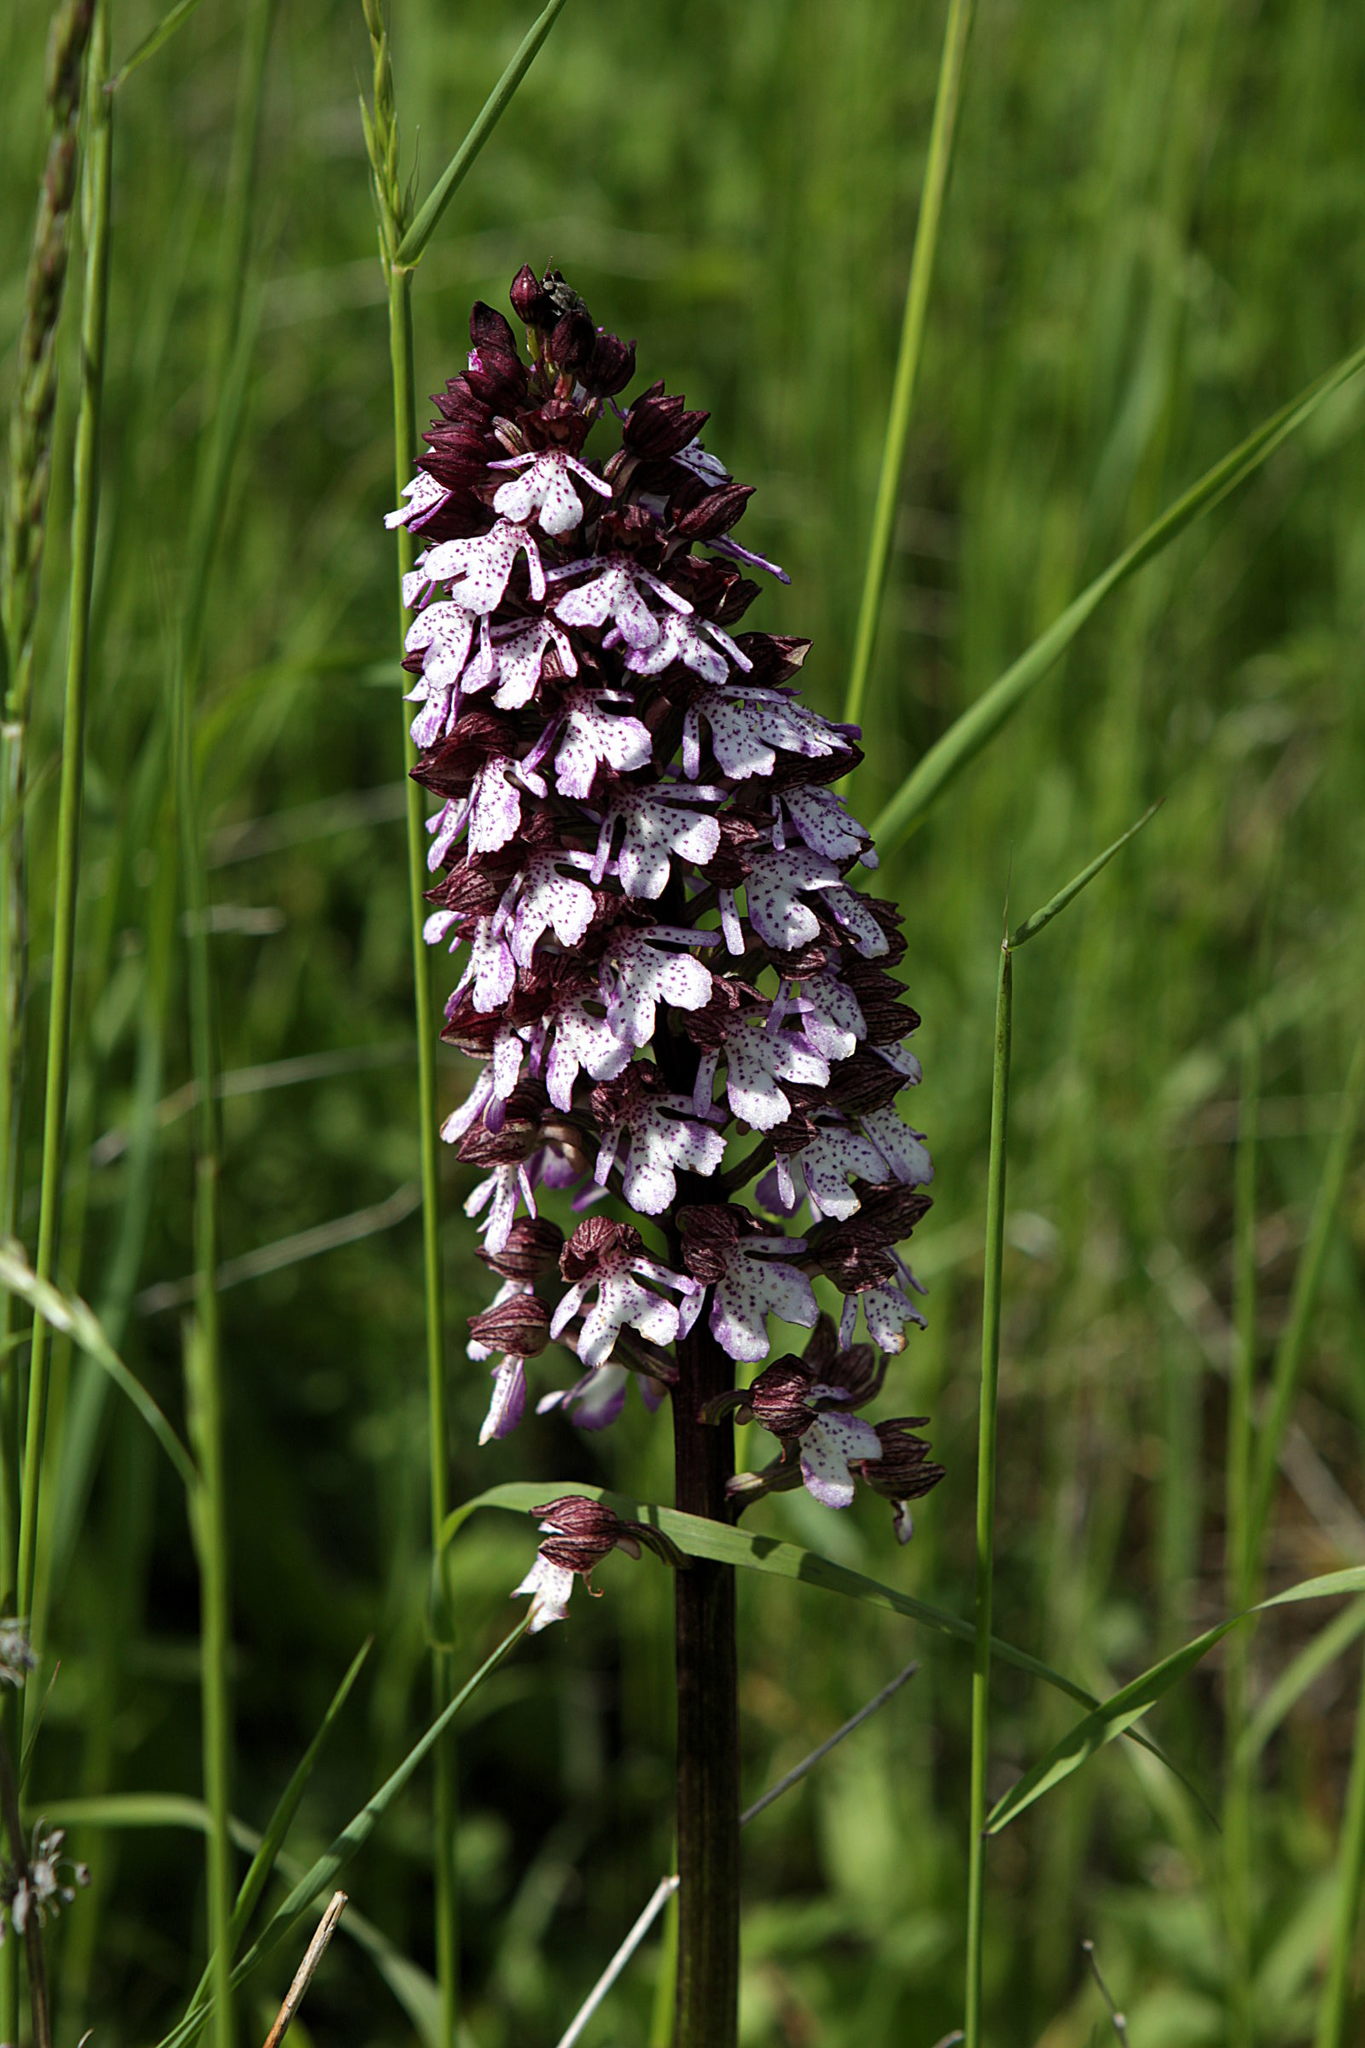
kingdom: Plantae
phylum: Tracheophyta
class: Liliopsida
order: Asparagales
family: Orchidaceae
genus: Orchis
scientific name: Orchis purpurea
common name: Lady orchid
